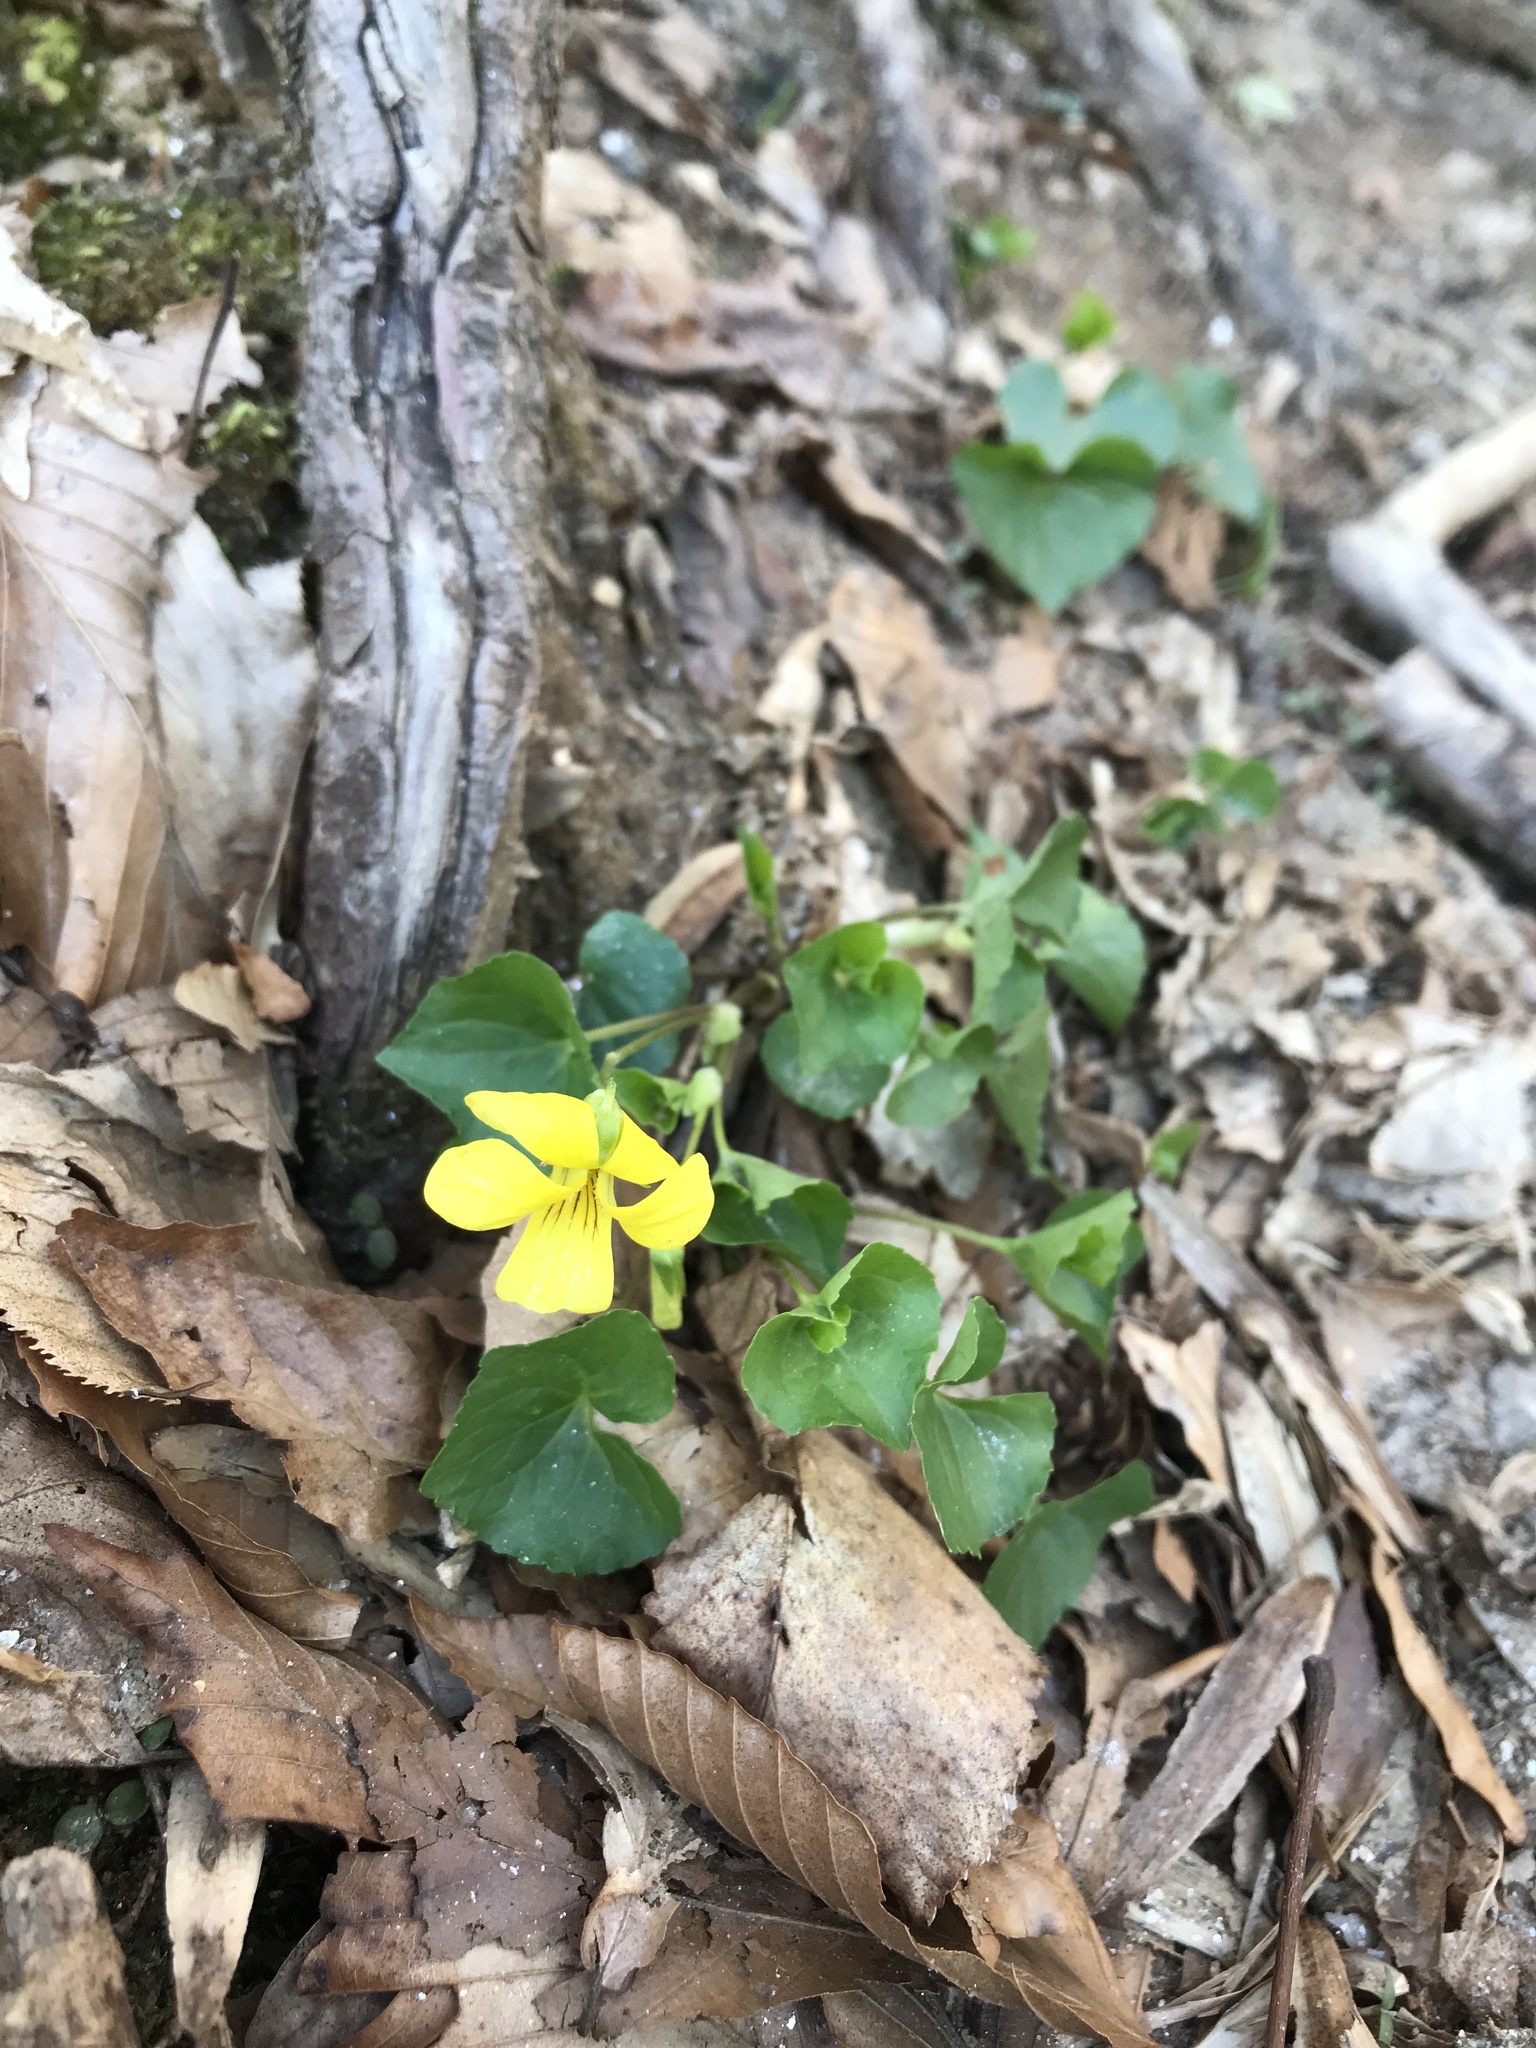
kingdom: Plantae
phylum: Tracheophyta
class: Magnoliopsida
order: Malpighiales
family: Violaceae
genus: Viola
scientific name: Viola eriocarpa
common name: Smooth yellow violet
